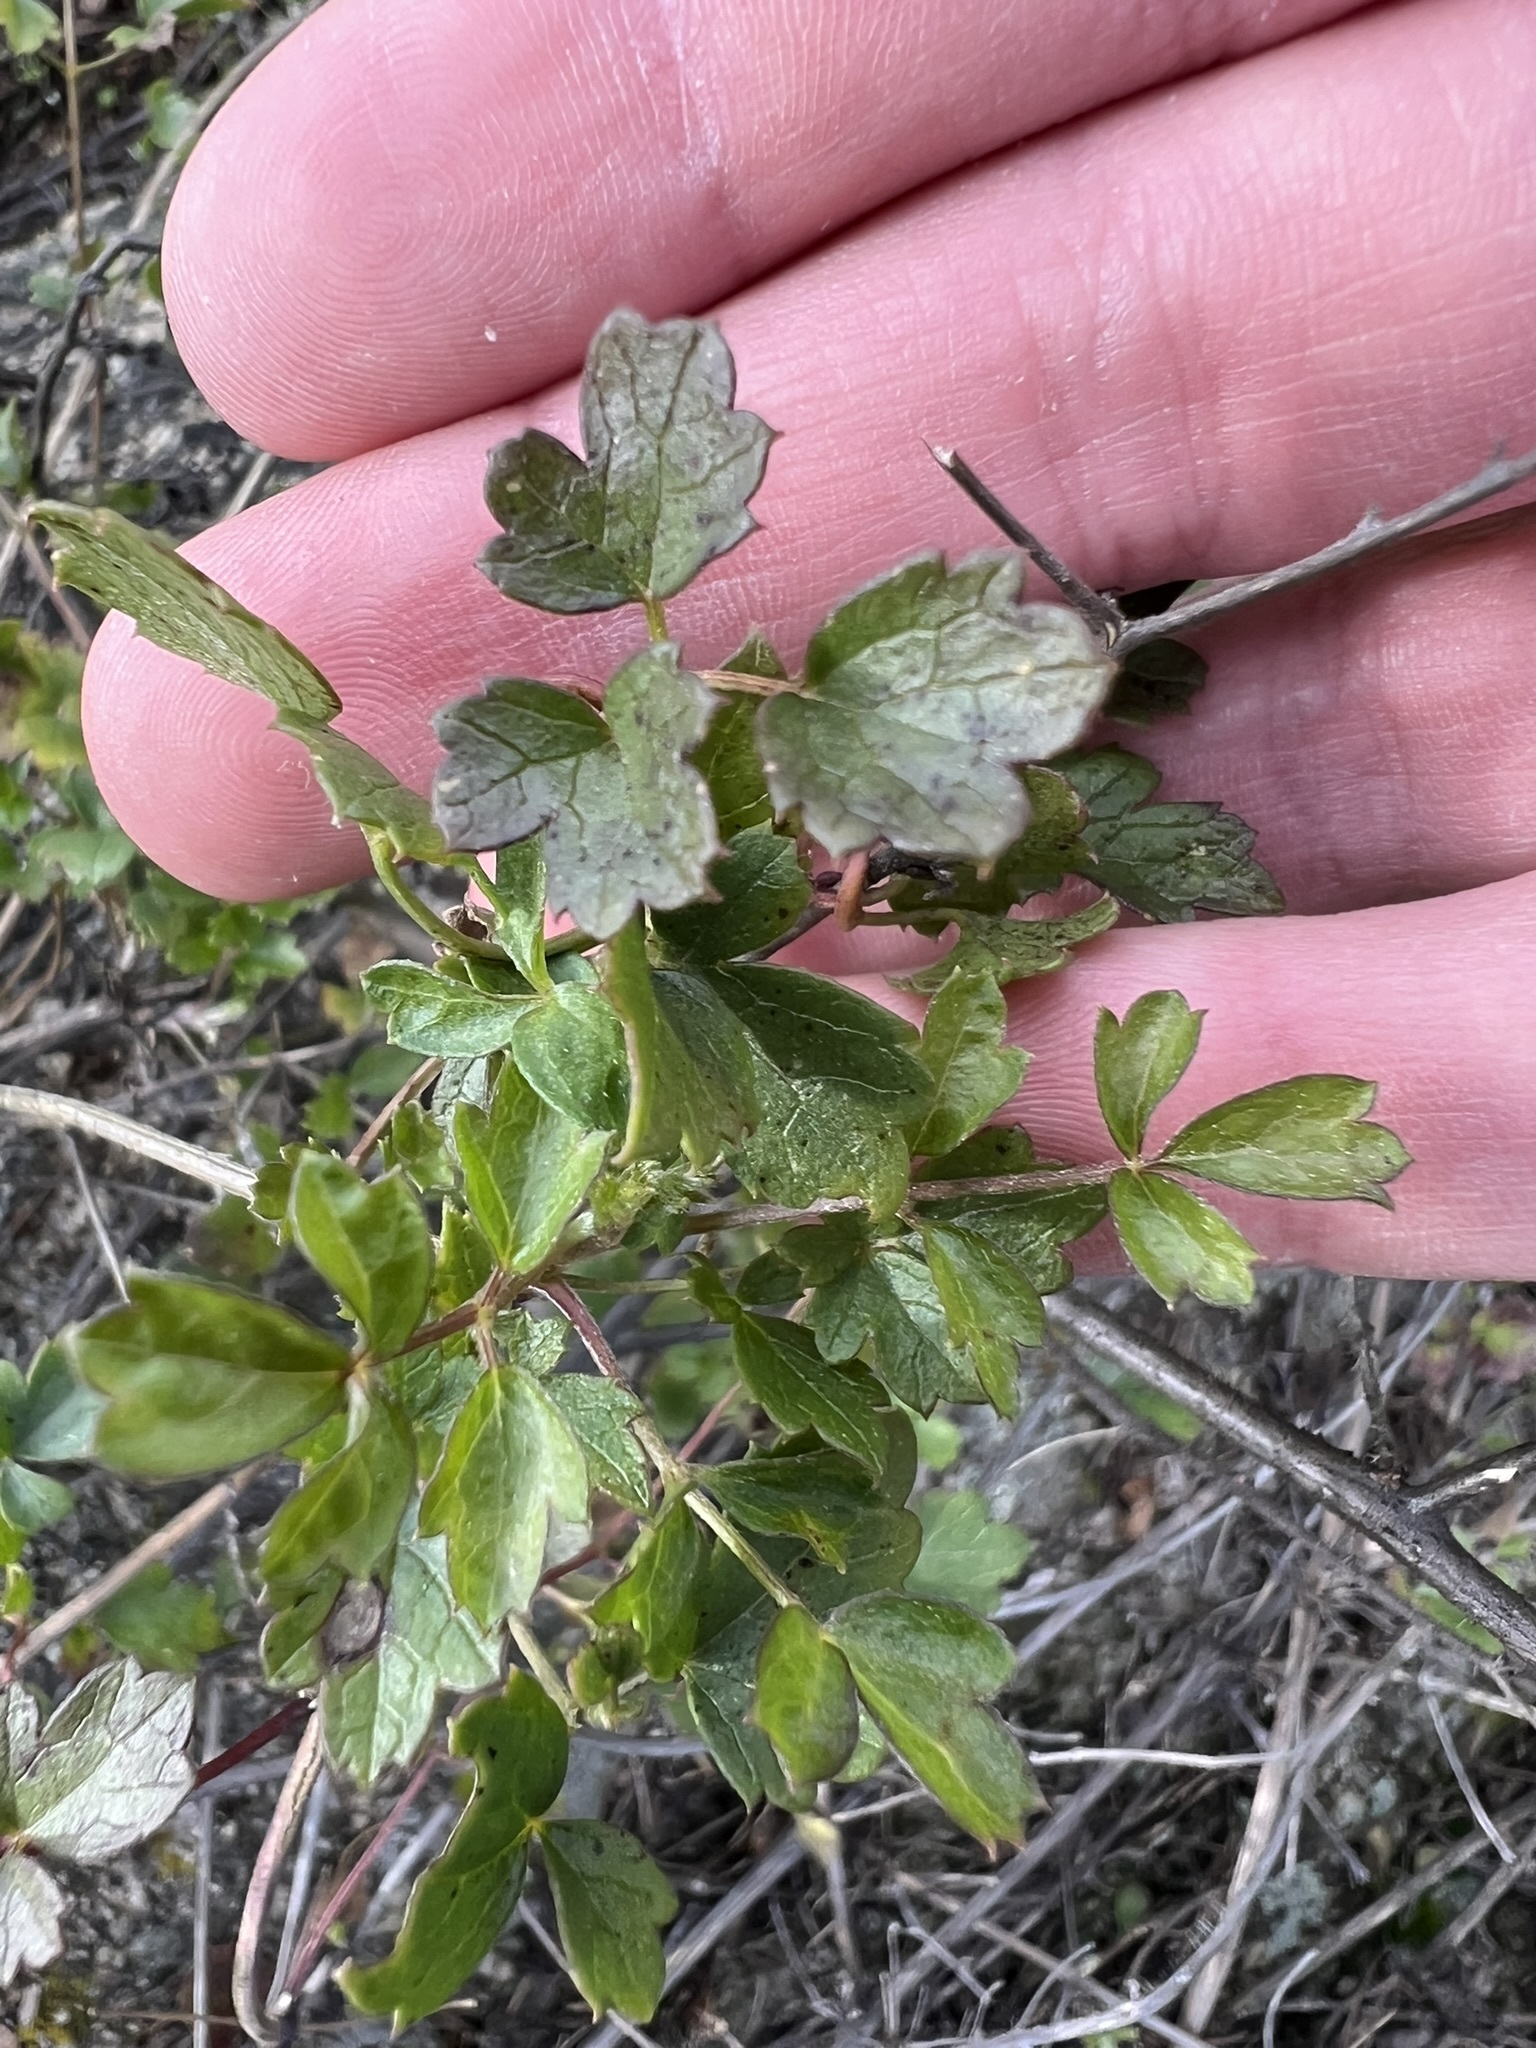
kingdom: Plantae
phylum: Tracheophyta
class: Magnoliopsida
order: Ranunculales
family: Ranunculaceae
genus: Clematis
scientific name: Clematis pauciflora
